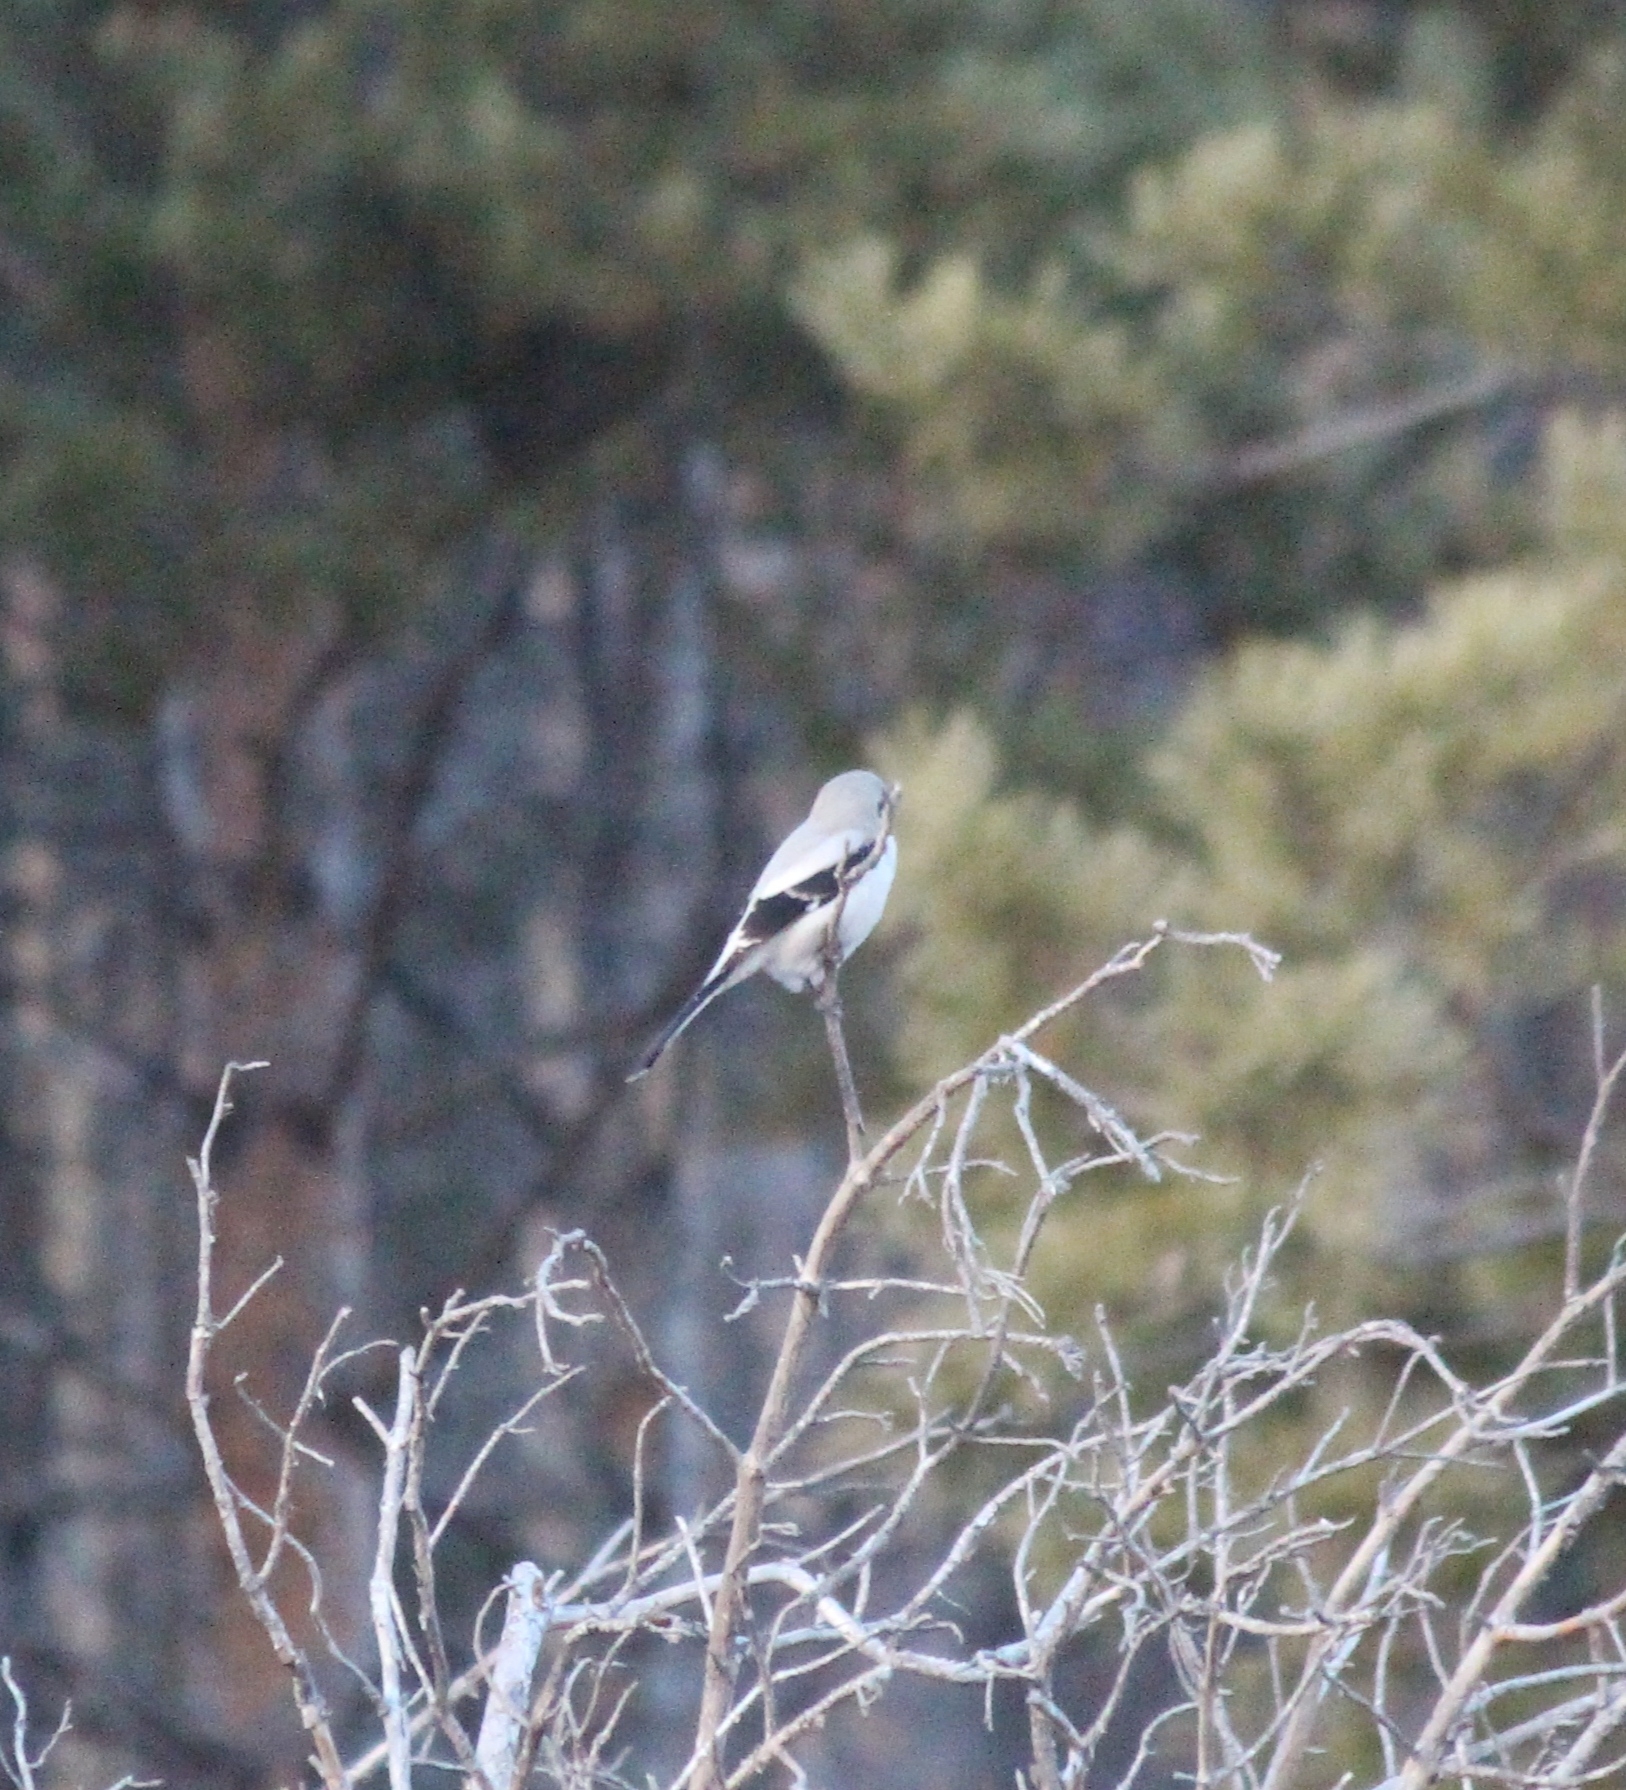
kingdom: Animalia
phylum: Chordata
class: Aves
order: Passeriformes
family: Laniidae
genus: Lanius
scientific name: Lanius borealis
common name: Northern shrike
